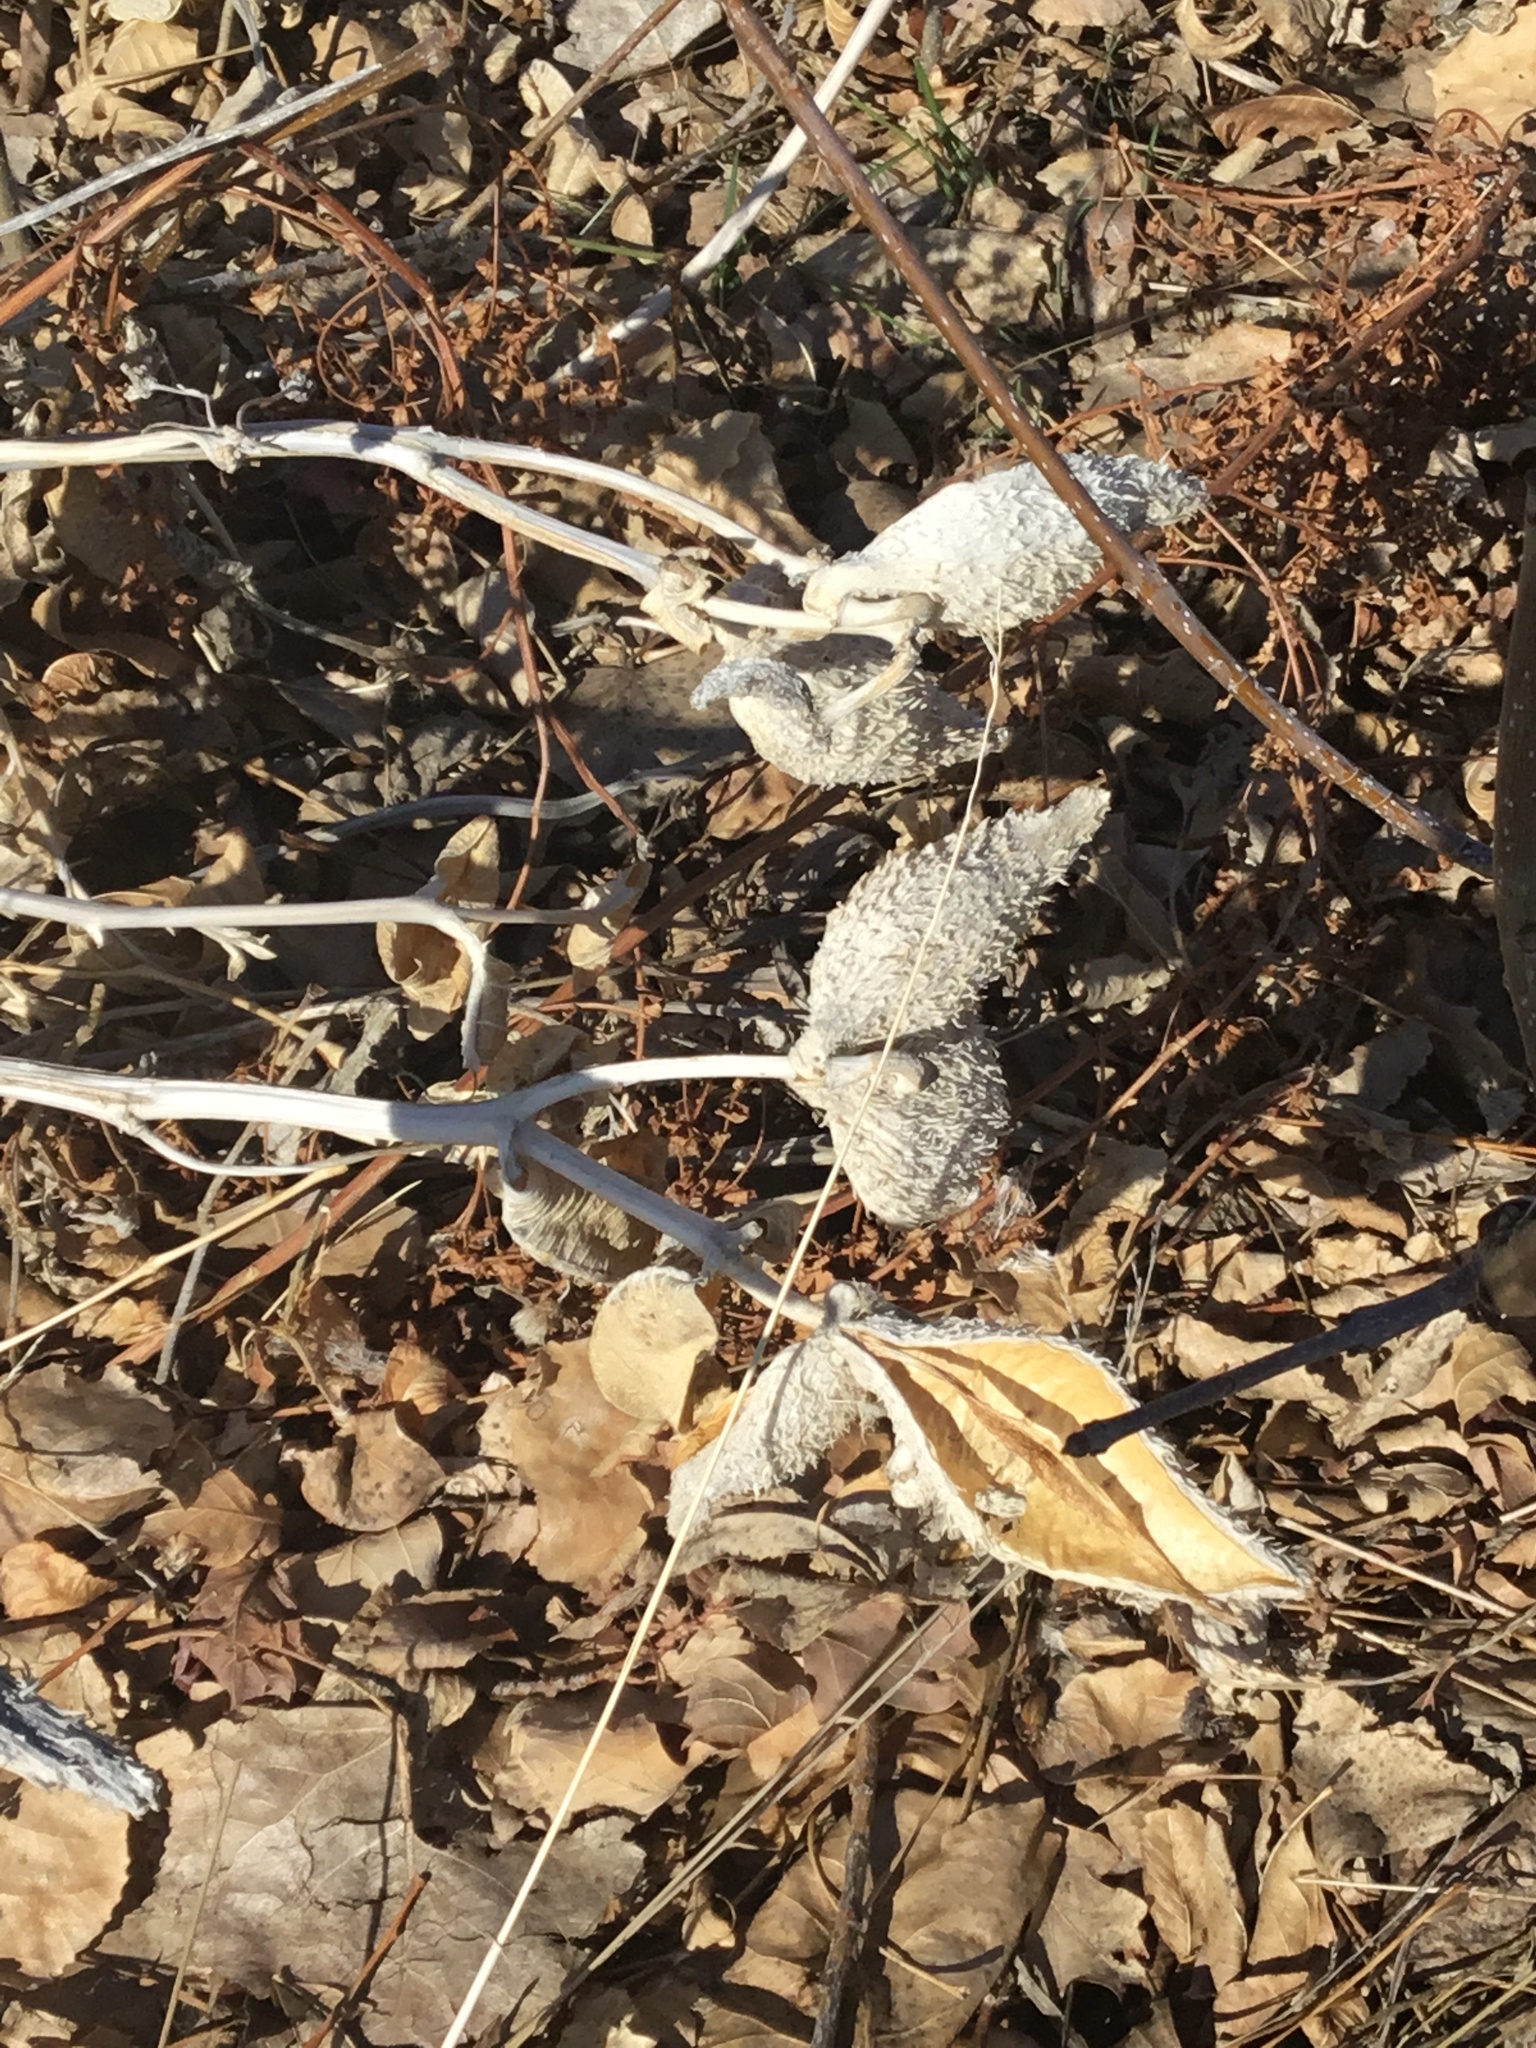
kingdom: Plantae
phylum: Tracheophyta
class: Magnoliopsida
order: Gentianales
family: Apocynaceae
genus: Asclepias
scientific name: Asclepias speciosa
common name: Showy milkweed
